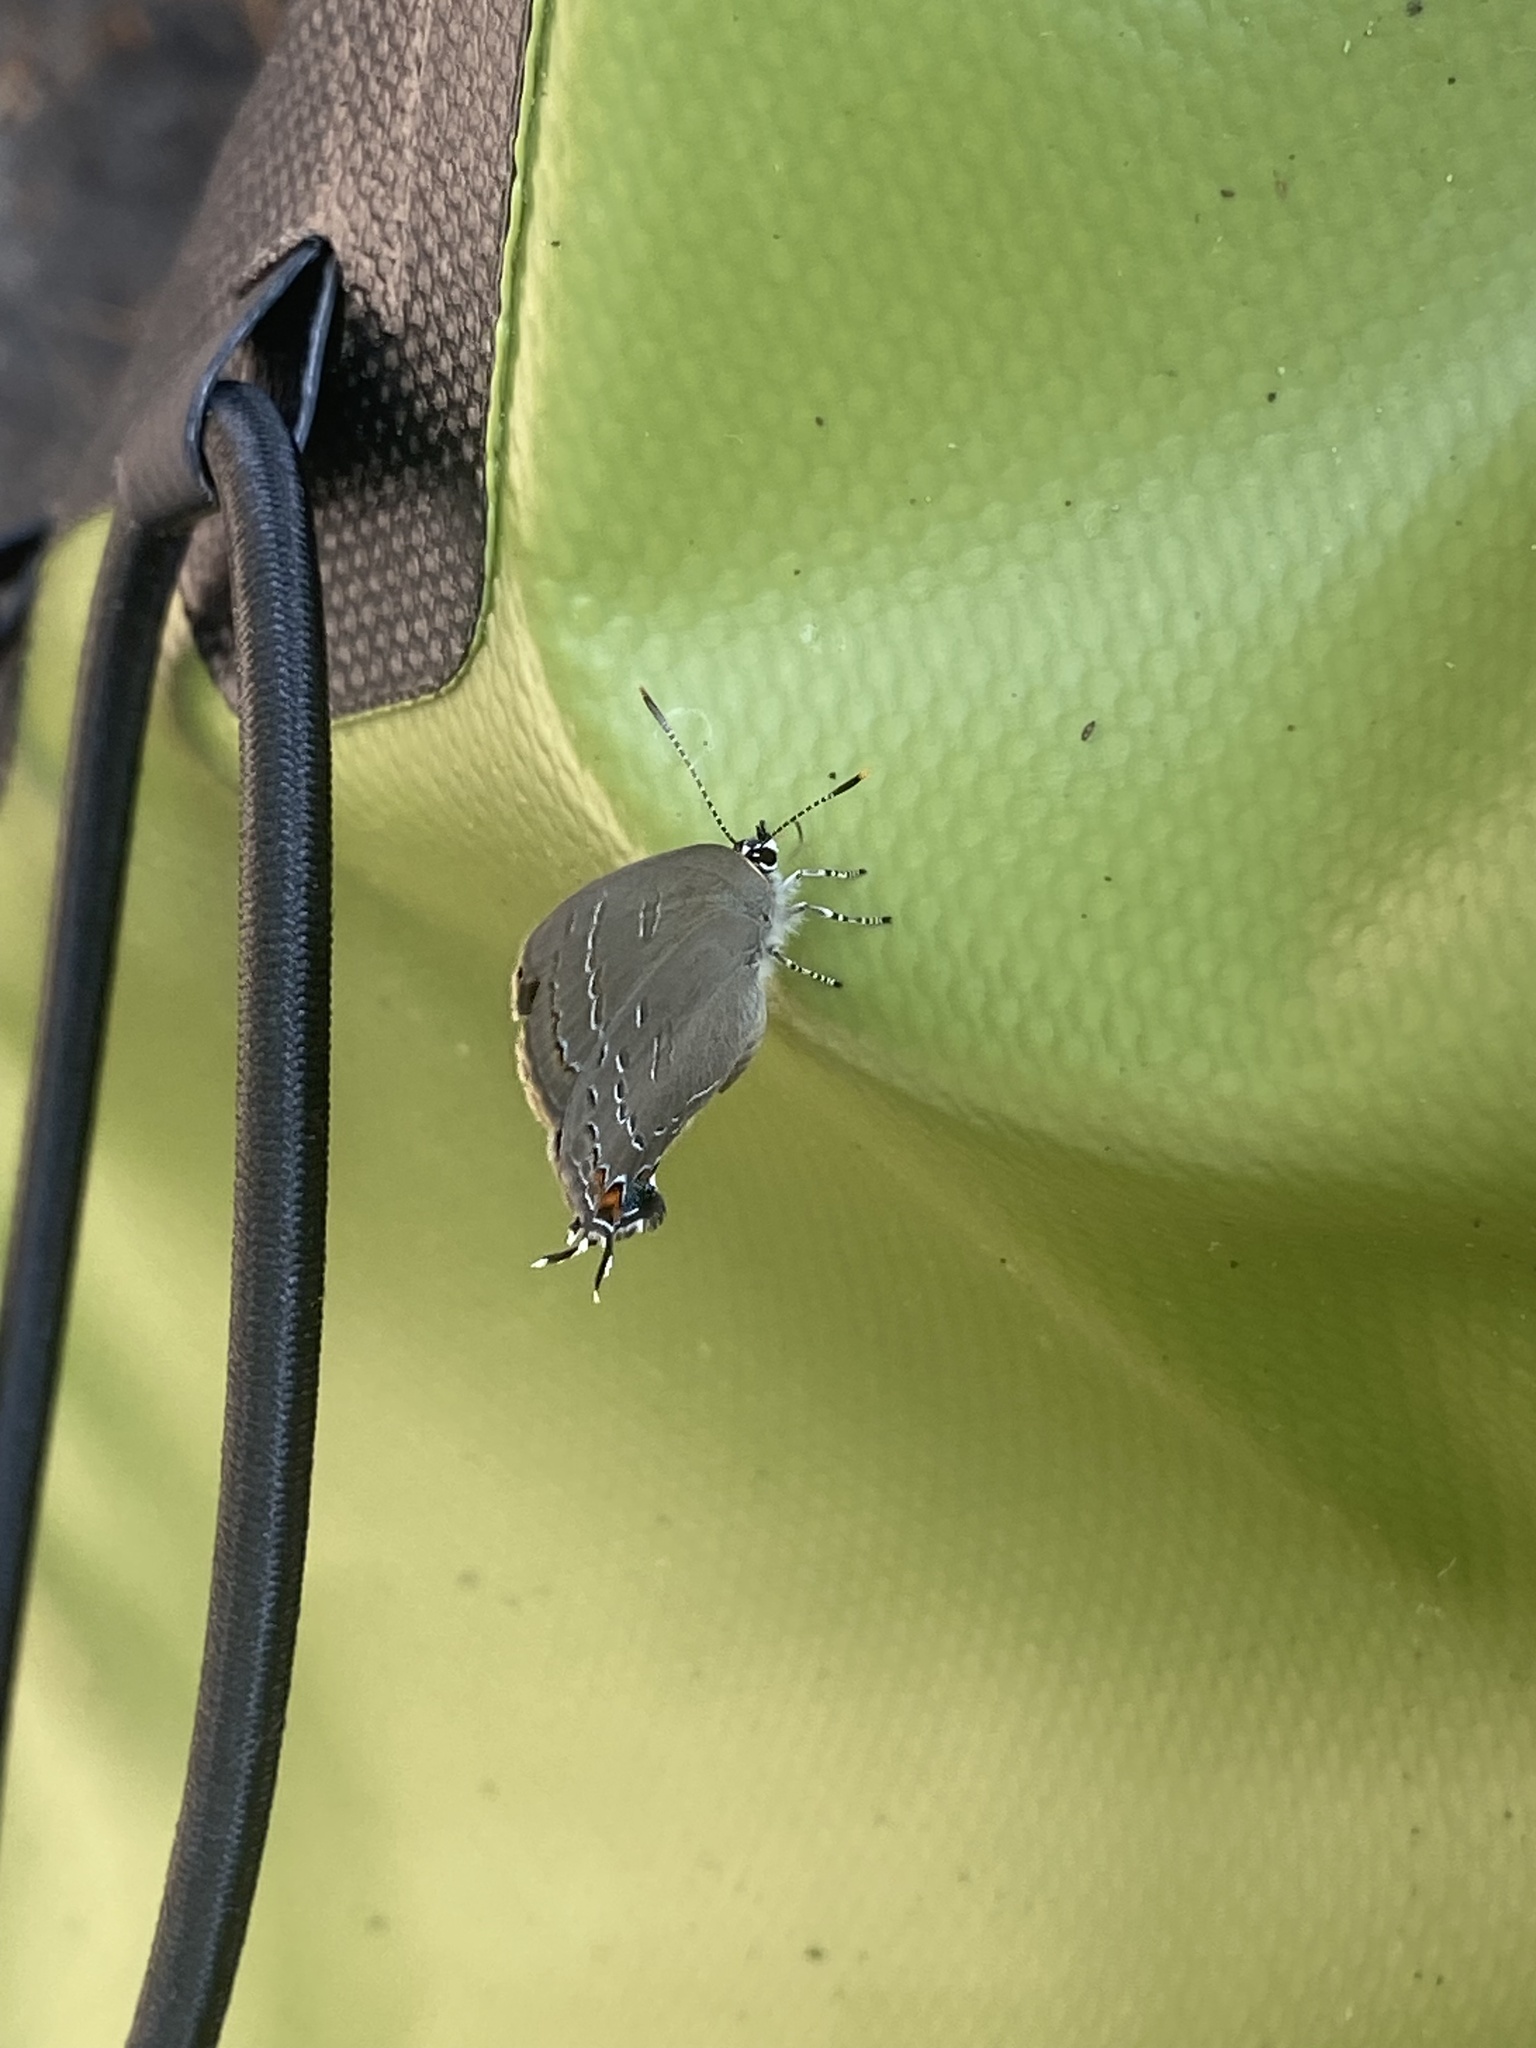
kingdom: Animalia
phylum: Arthropoda
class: Insecta
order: Lepidoptera
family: Lycaenidae
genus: Satyrium
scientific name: Satyrium calanus
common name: Banded hairstreak
